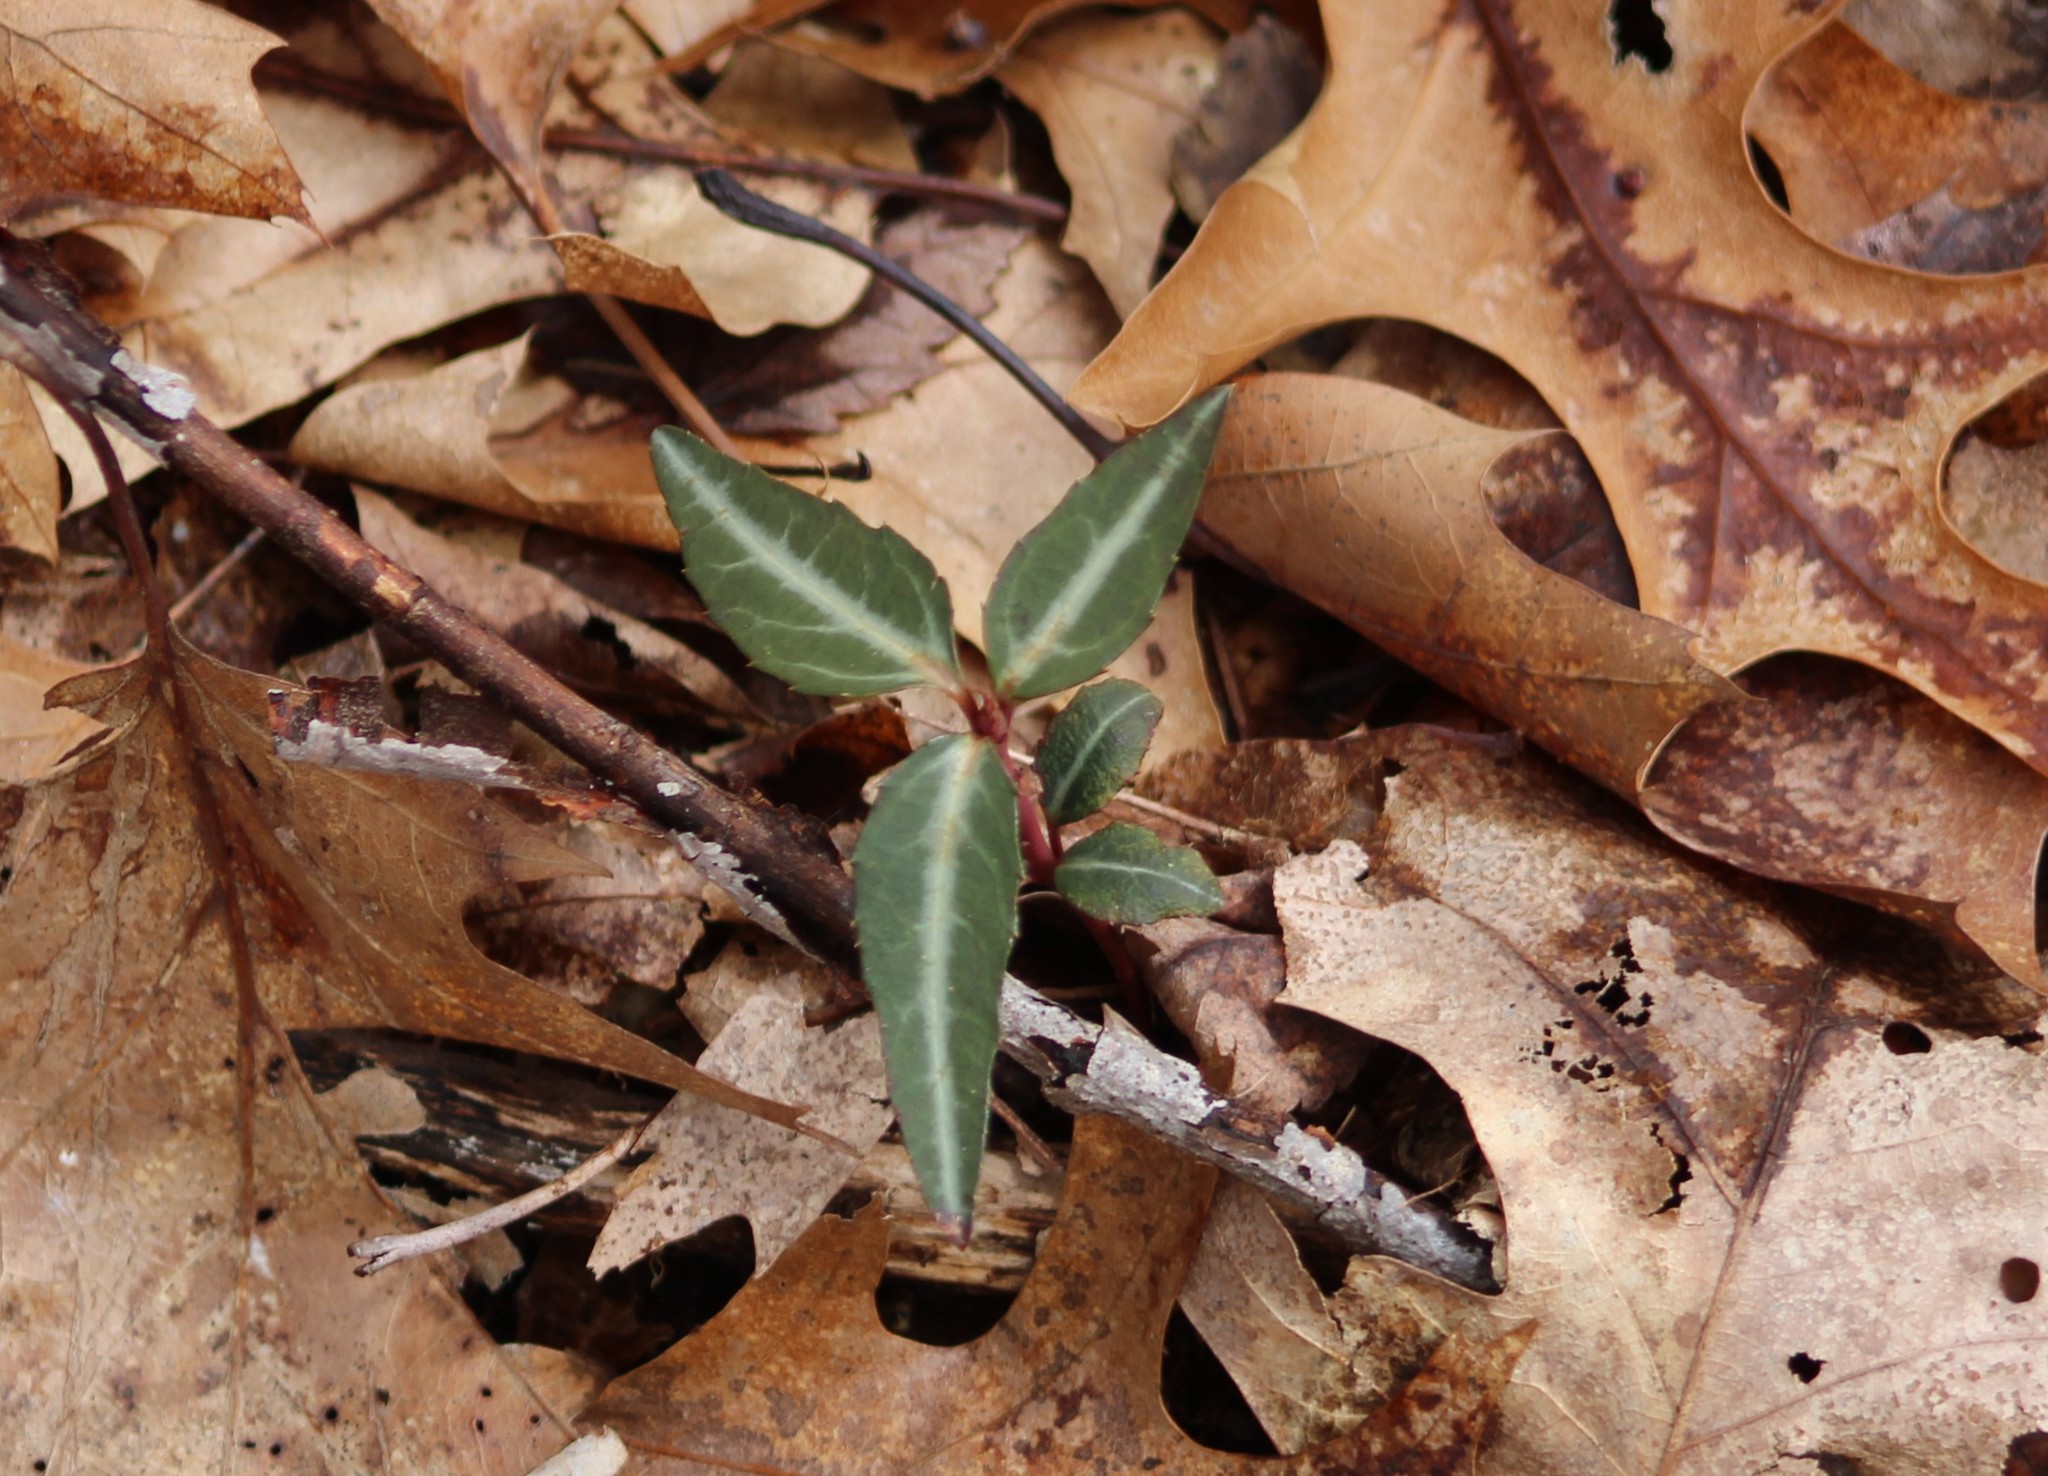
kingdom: Plantae
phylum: Tracheophyta
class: Magnoliopsida
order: Ericales
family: Ericaceae
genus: Chimaphila
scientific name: Chimaphila maculata
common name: Spotted pipsissewa
